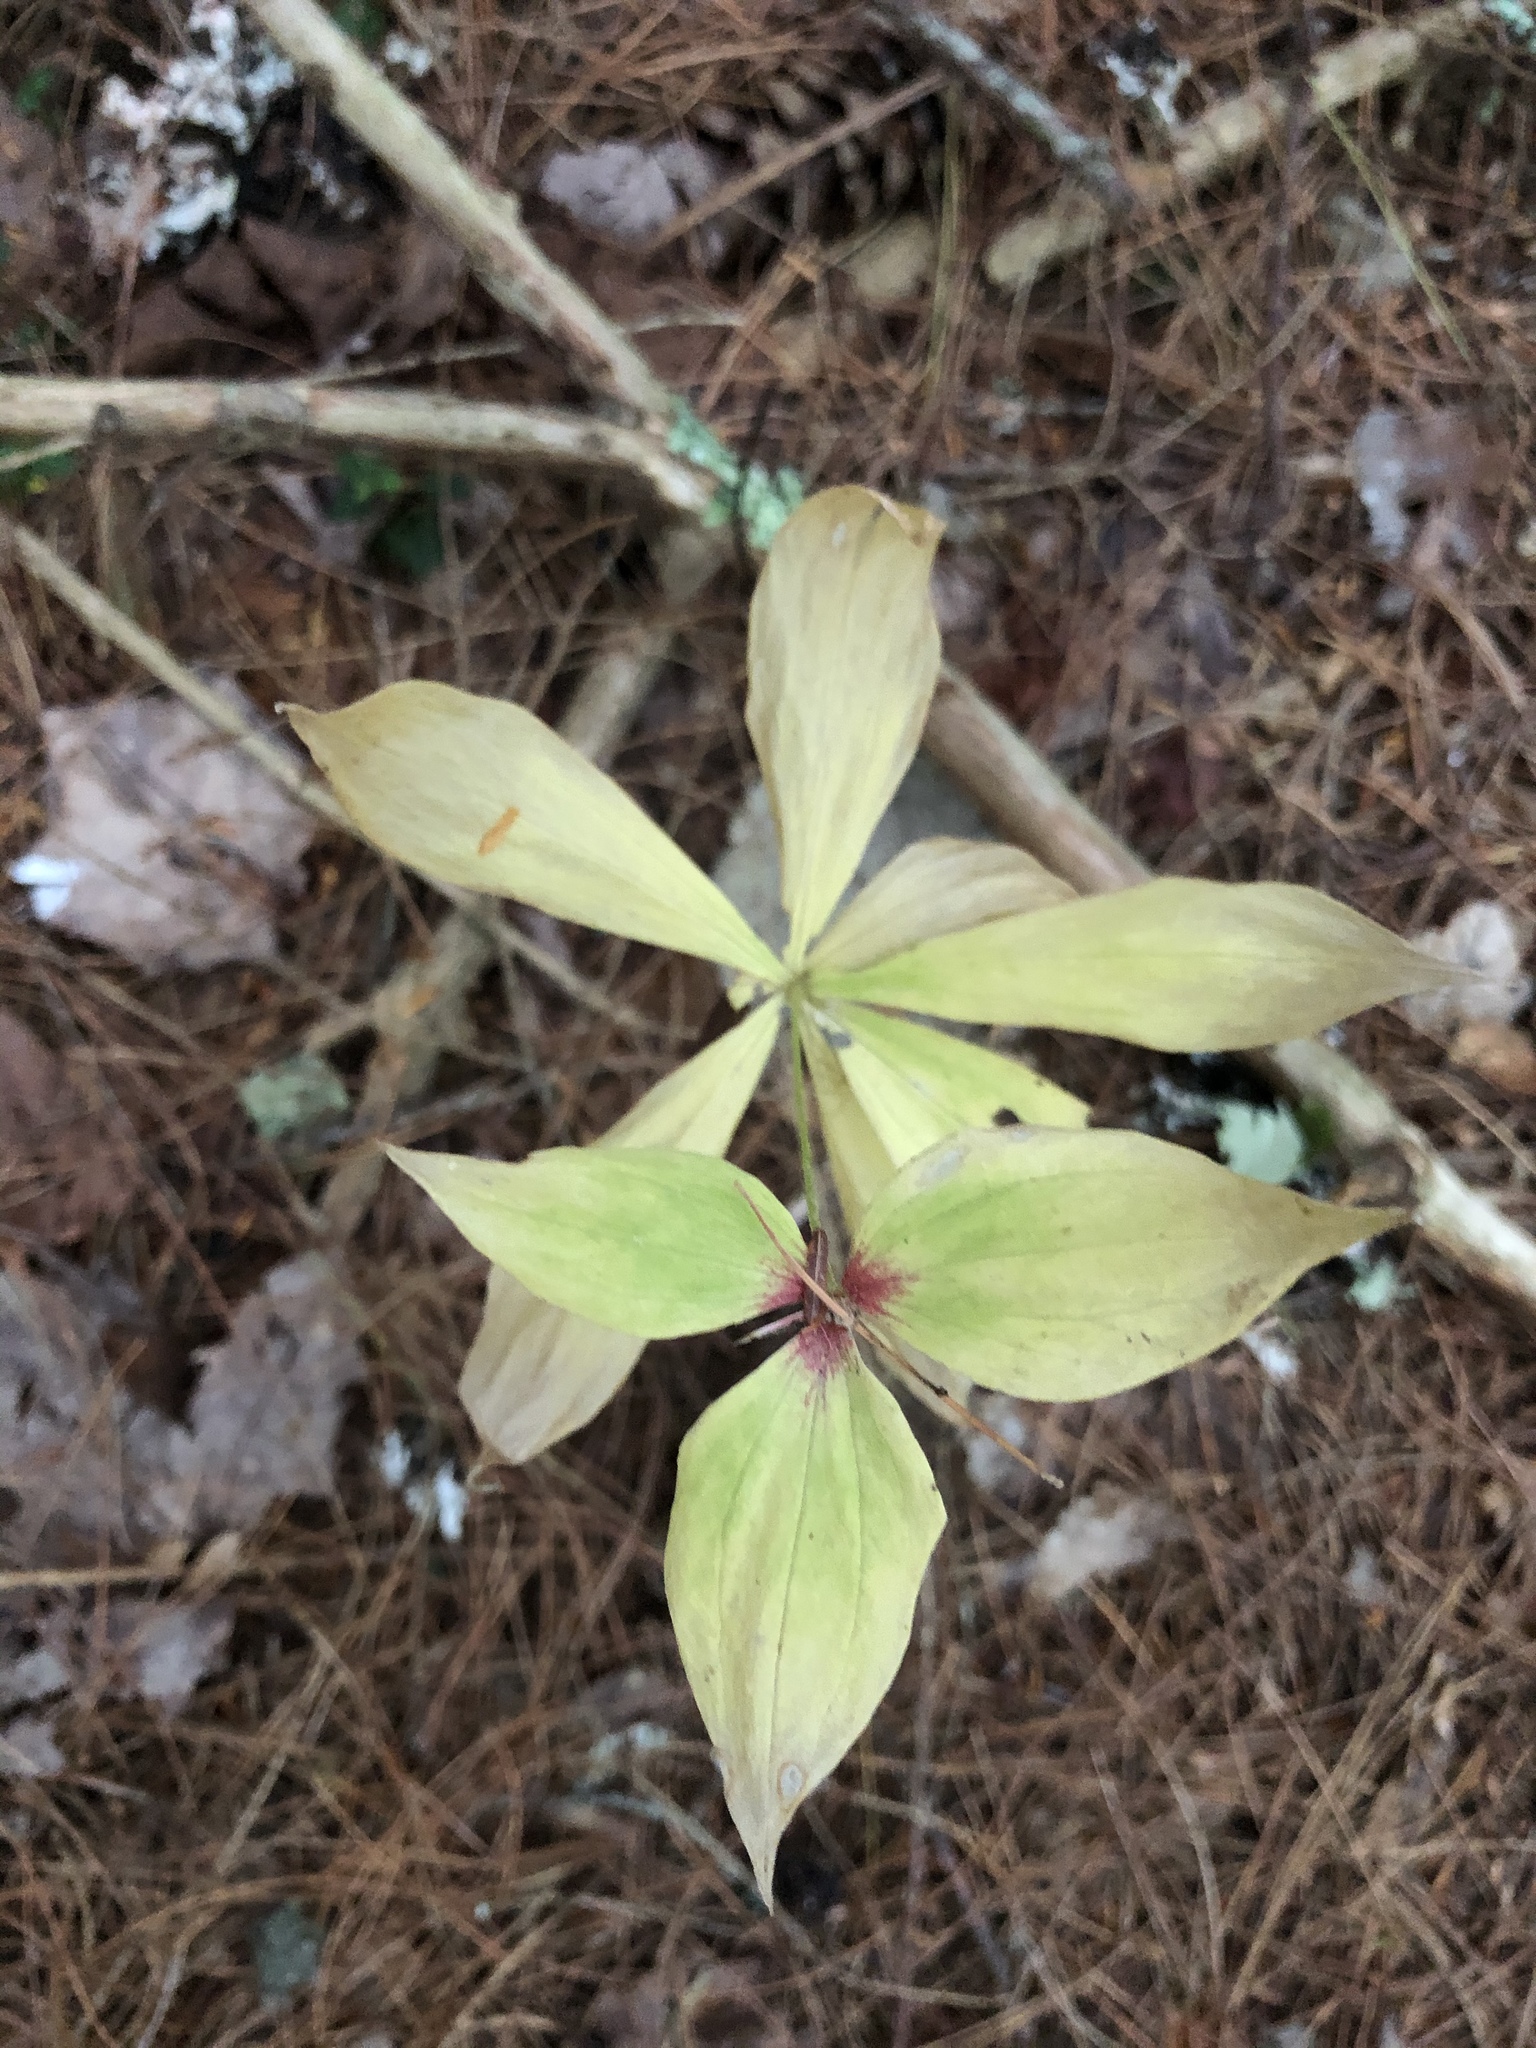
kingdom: Plantae
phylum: Tracheophyta
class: Liliopsida
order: Liliales
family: Liliaceae
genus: Medeola
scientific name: Medeola virginiana
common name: Indian cucumber-root
